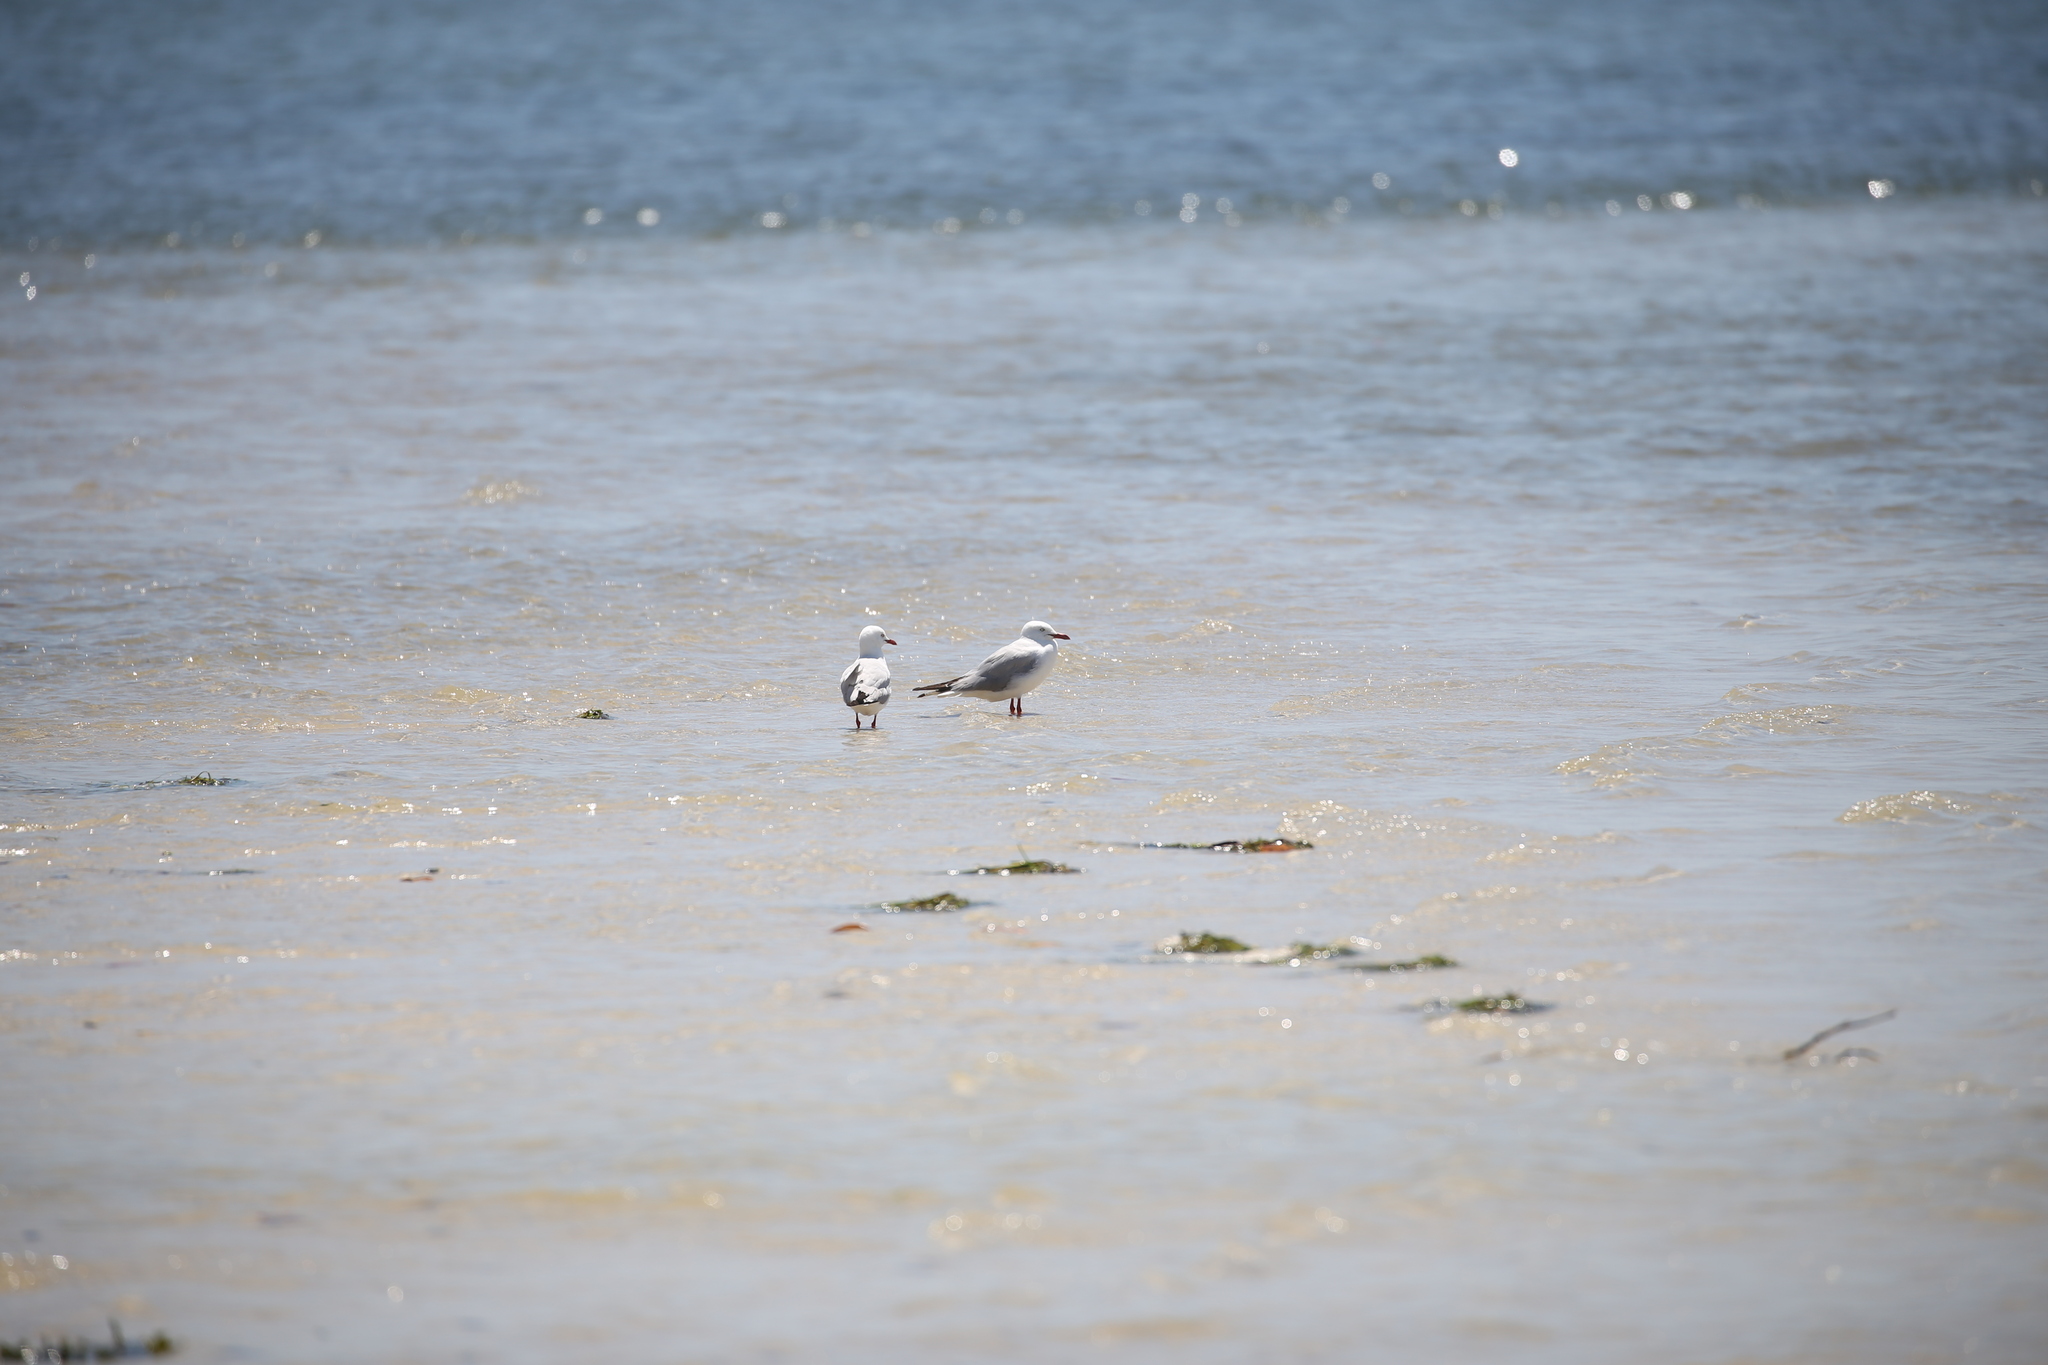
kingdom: Animalia
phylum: Chordata
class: Aves
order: Charadriiformes
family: Laridae
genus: Chroicocephalus
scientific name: Chroicocephalus novaehollandiae
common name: Silver gull
